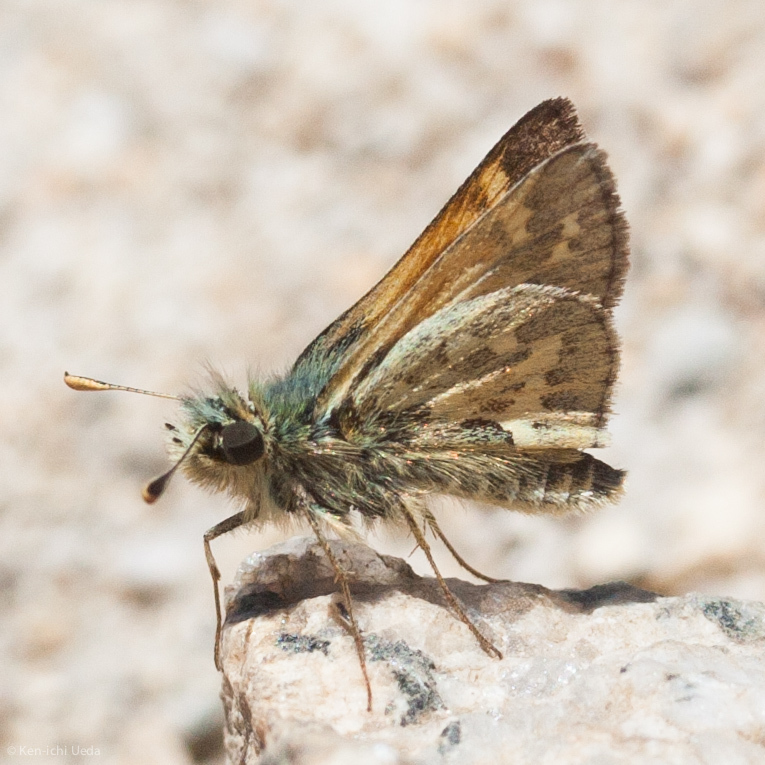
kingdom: Animalia
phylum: Arthropoda
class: Insecta
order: Lepidoptera
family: Hesperiidae
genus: Polites
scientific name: Polites sabuleti
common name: Sandhill skipper
